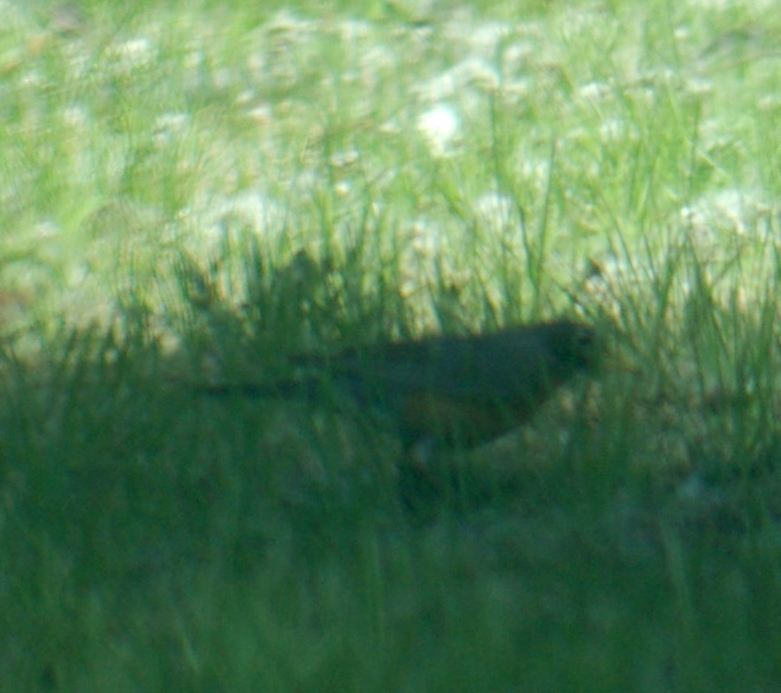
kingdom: Animalia
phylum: Chordata
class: Aves
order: Passeriformes
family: Turdidae
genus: Turdus
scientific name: Turdus migratorius
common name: American robin
